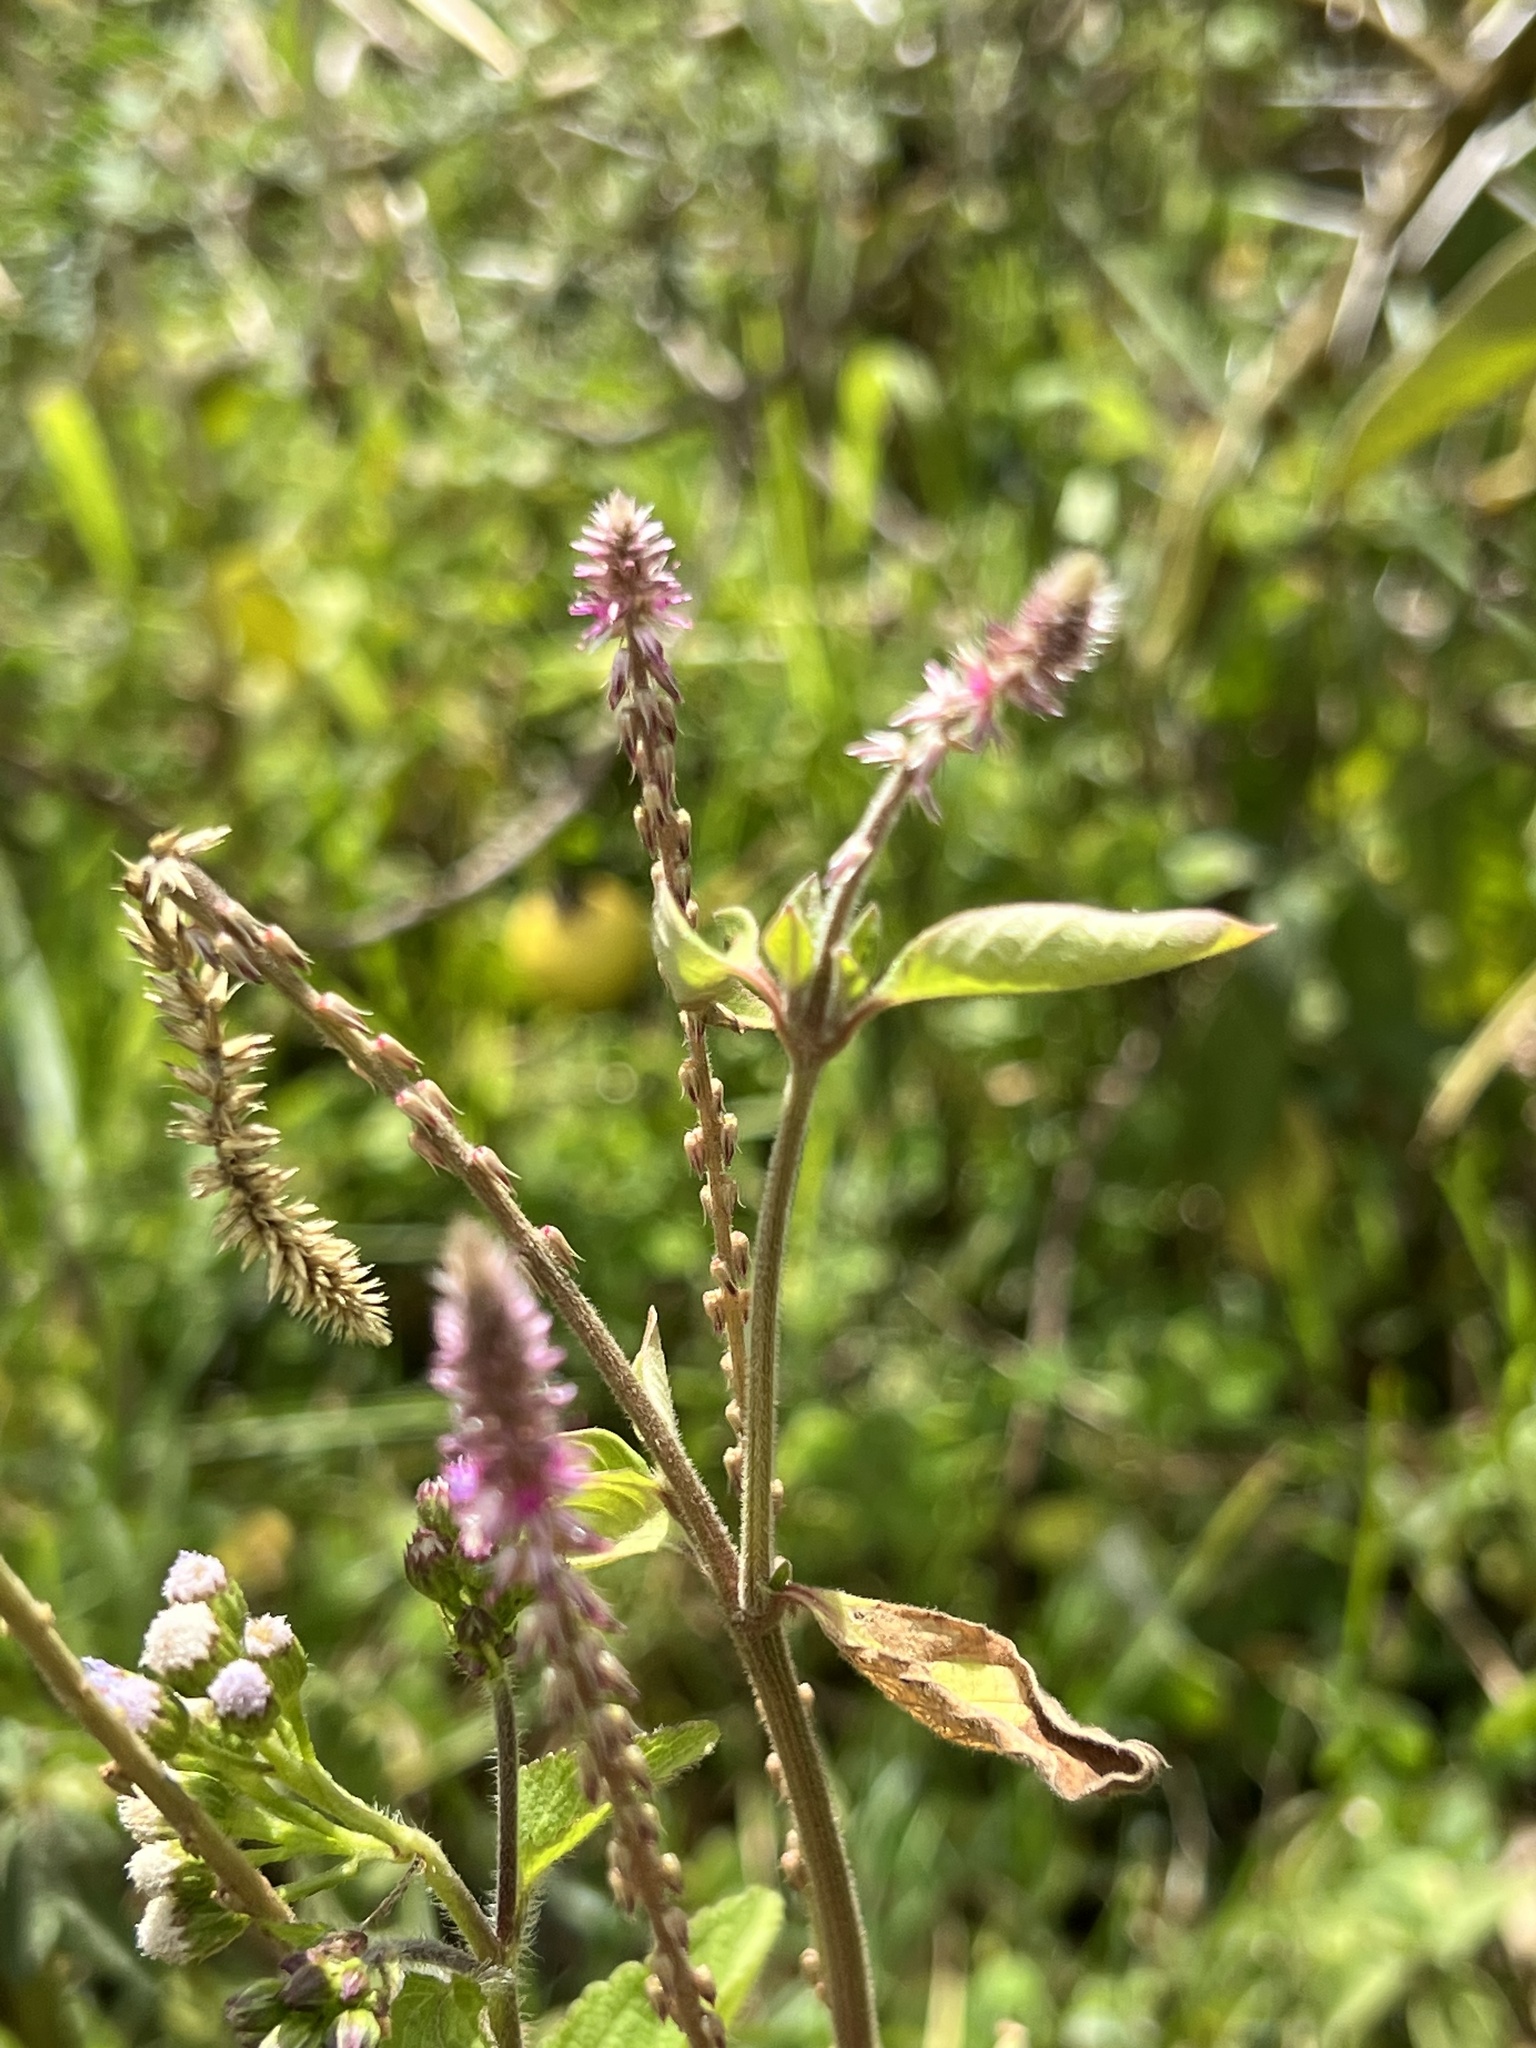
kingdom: Plantae
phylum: Tracheophyta
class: Magnoliopsida
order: Caryophyllales
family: Amaranthaceae
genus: Achyranthes
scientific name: Achyranthes aspera
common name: Devil's horsewhip
